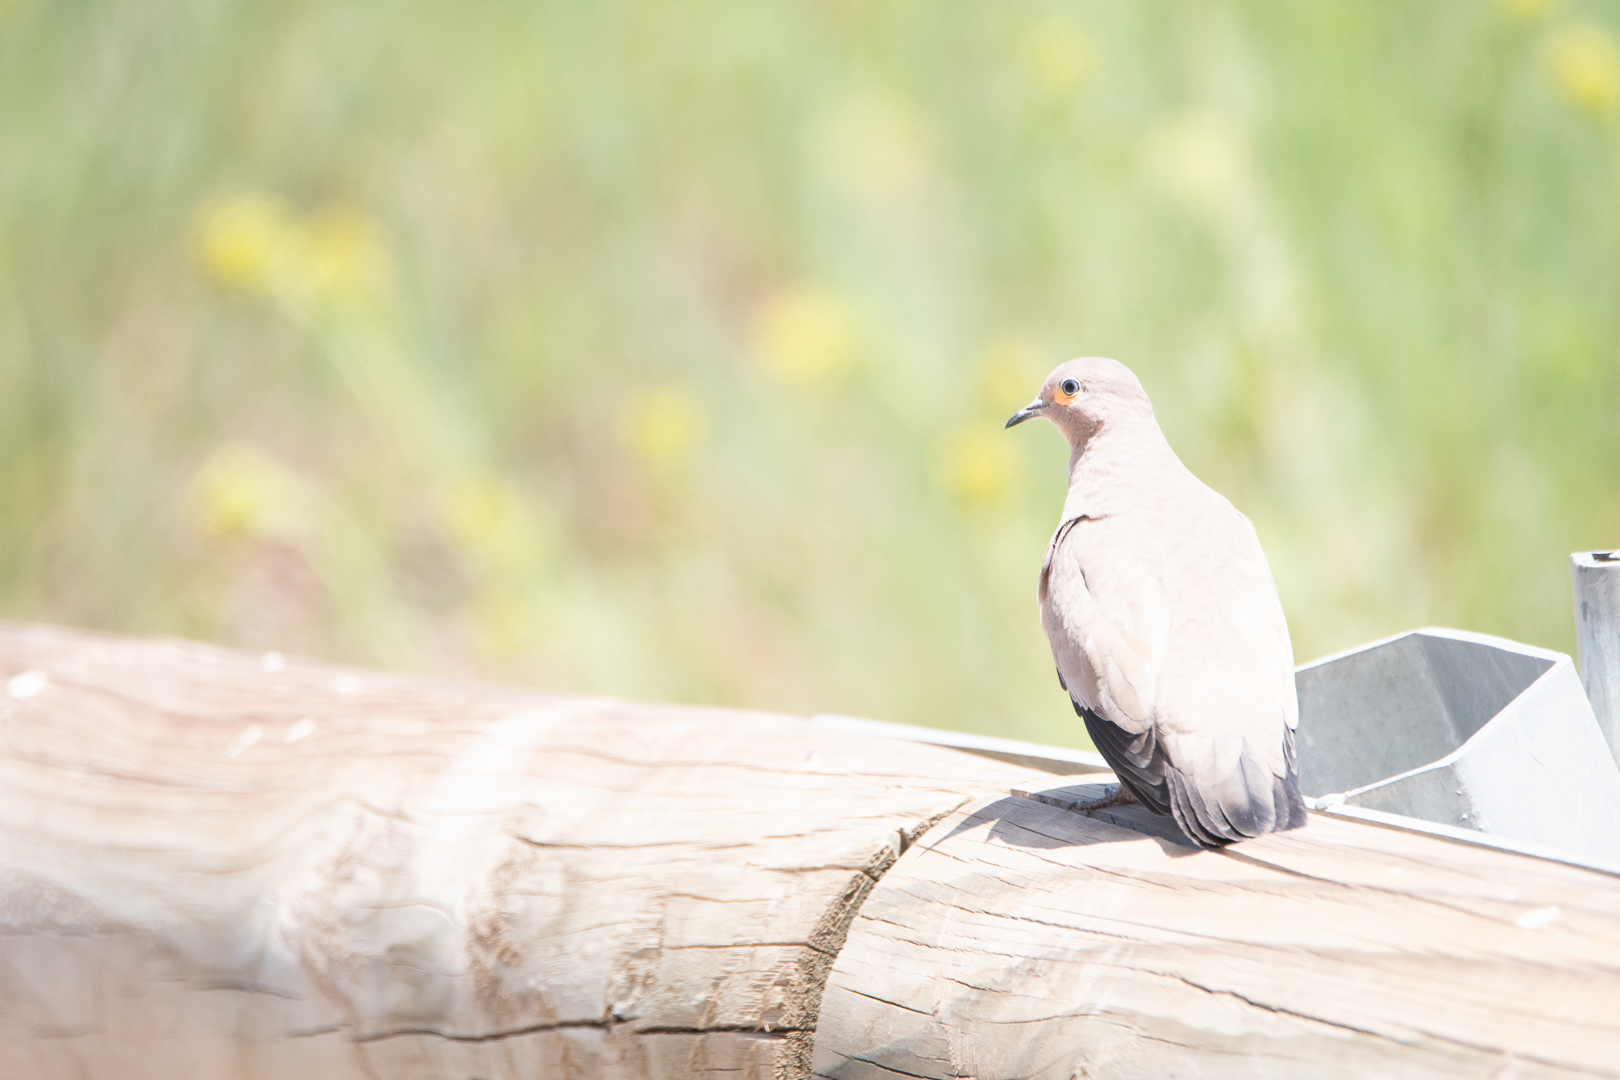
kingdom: Animalia
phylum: Chordata
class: Aves
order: Columbiformes
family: Columbidae
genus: Metriopelia
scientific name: Metriopelia melanoptera
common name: Black-winged ground dove
